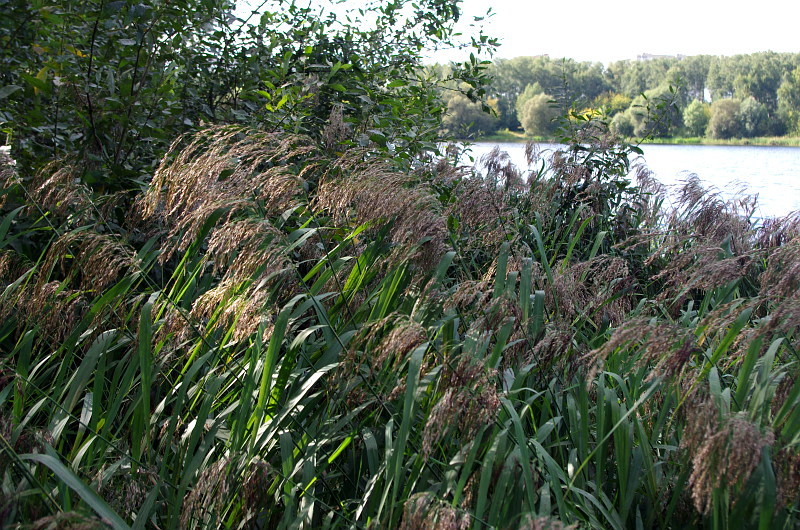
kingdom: Plantae
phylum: Tracheophyta
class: Liliopsida
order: Poales
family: Poaceae
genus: Phragmites
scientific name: Phragmites australis
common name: Common reed
